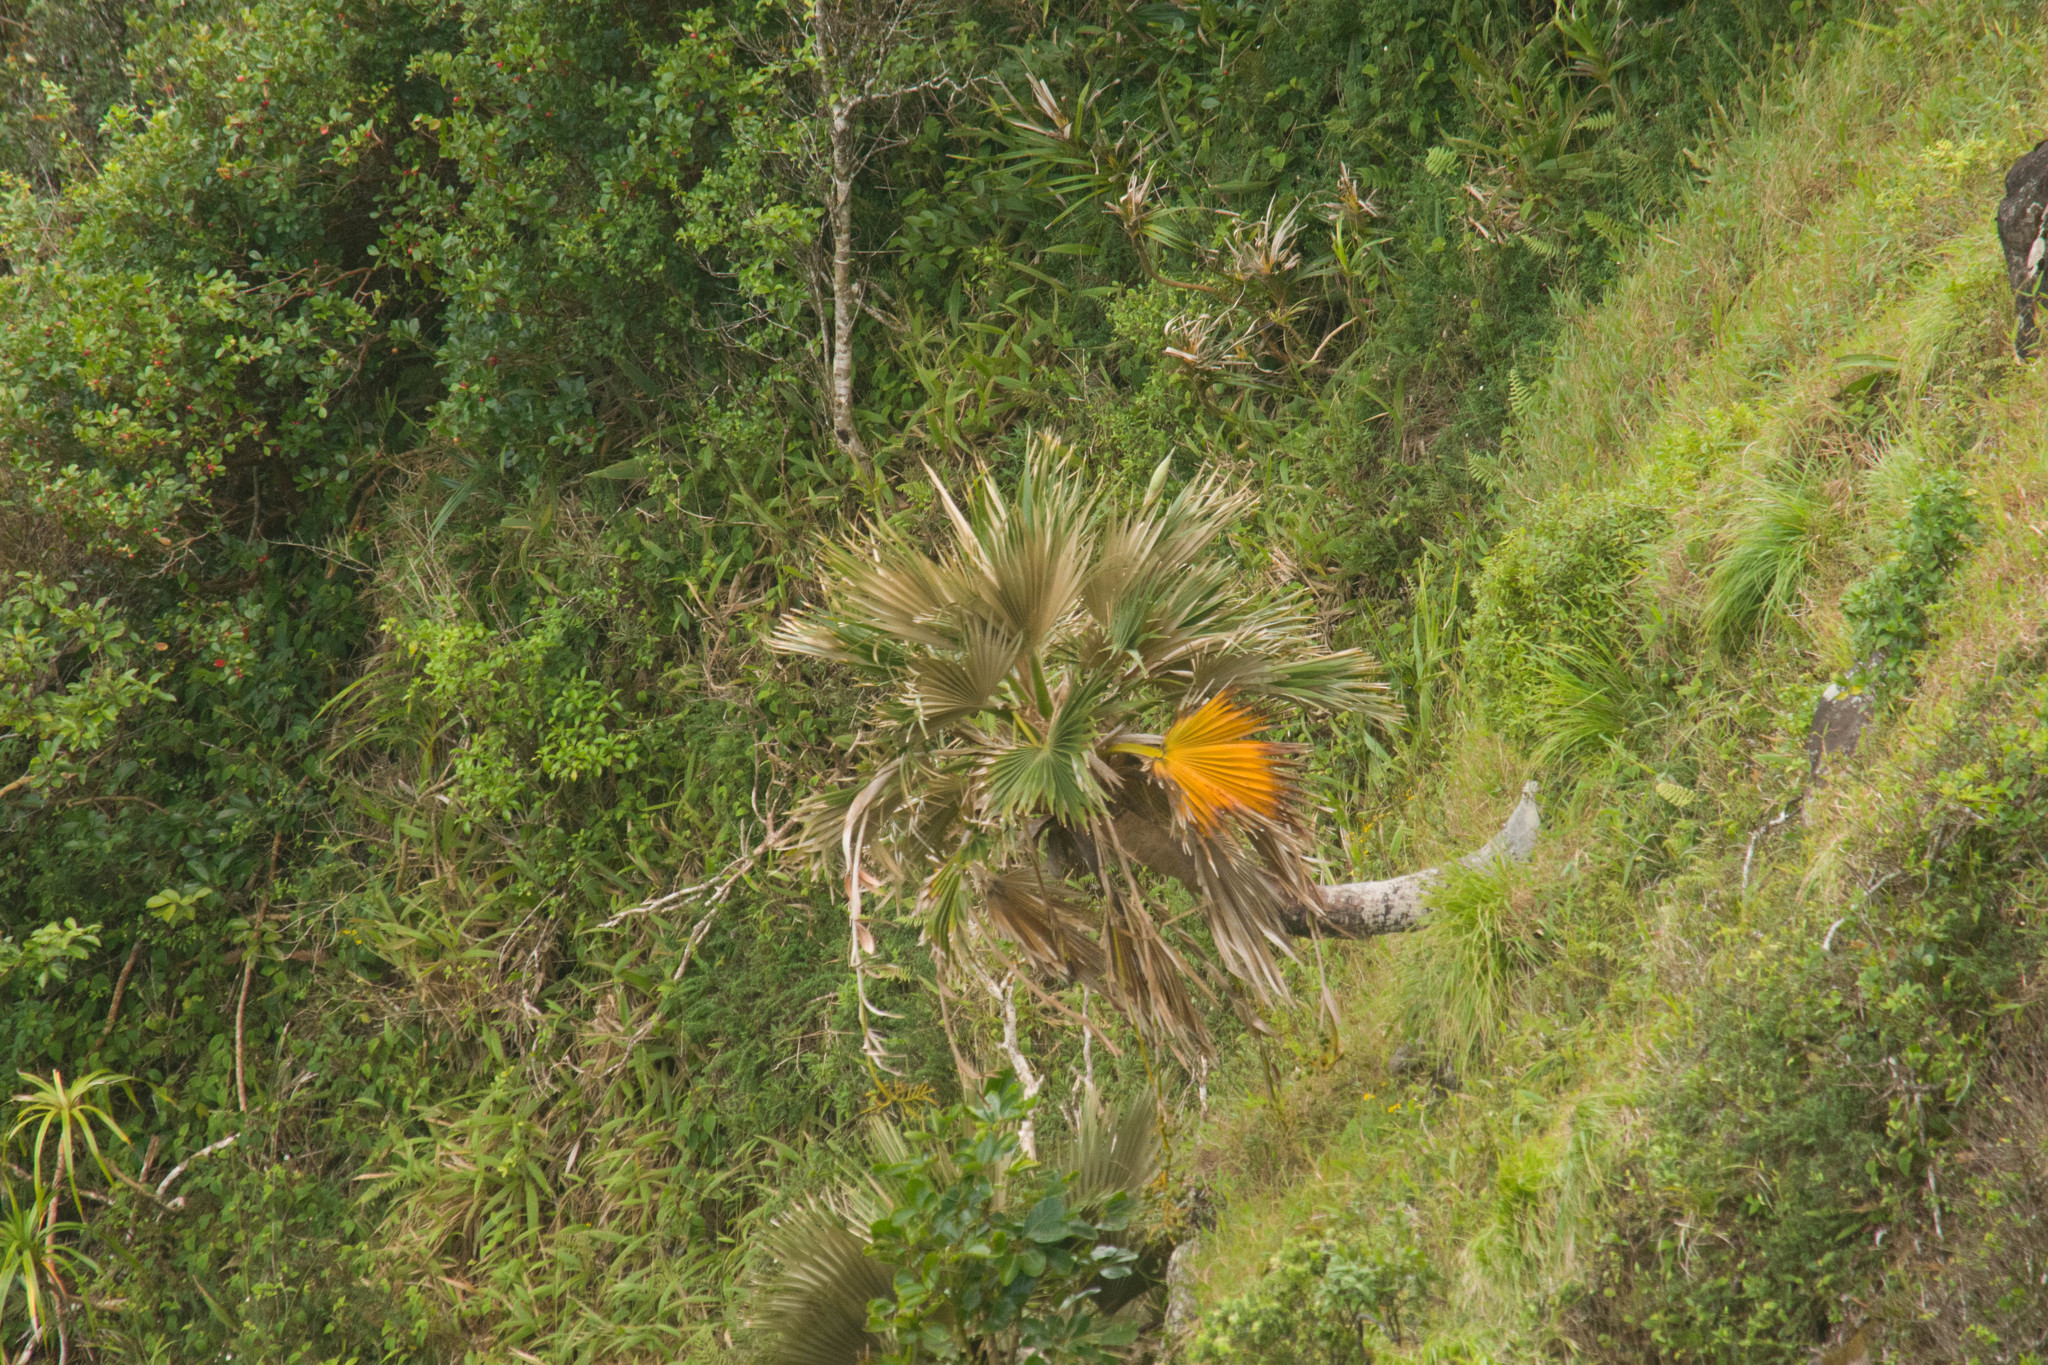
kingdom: Plantae
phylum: Tracheophyta
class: Liliopsida
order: Arecales
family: Arecaceae
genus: Pritchardia
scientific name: Pritchardia bakeri
